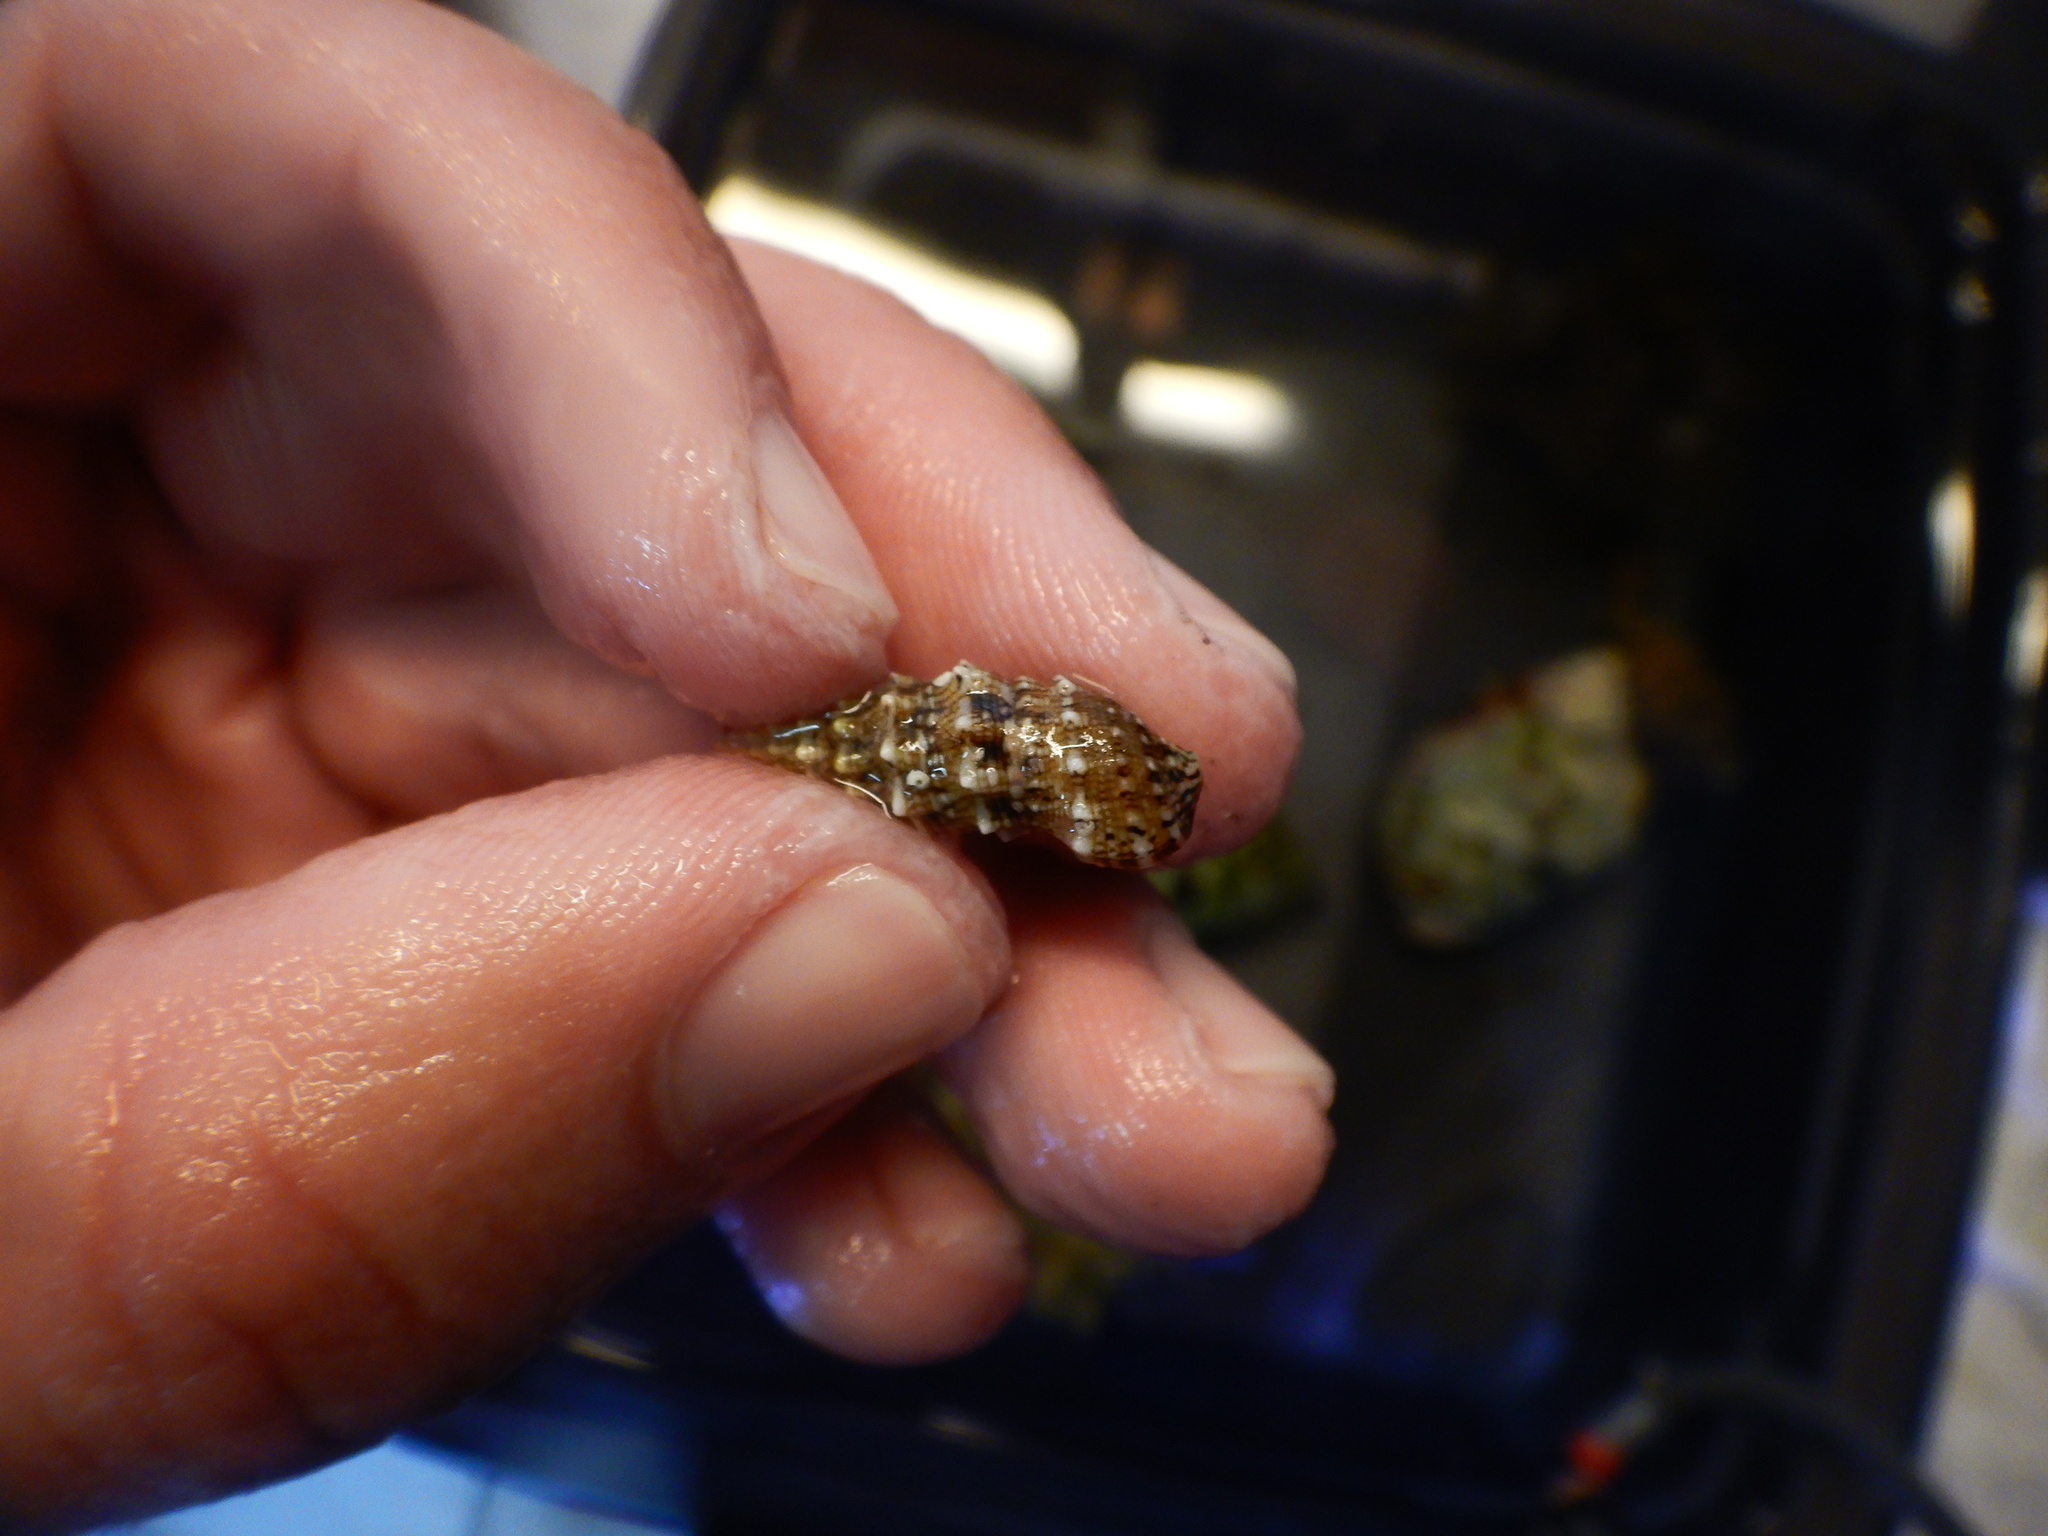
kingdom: Animalia
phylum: Mollusca
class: Gastropoda
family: Cerithiidae
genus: Cerithium
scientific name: Cerithium vulgatum
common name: European cerith
